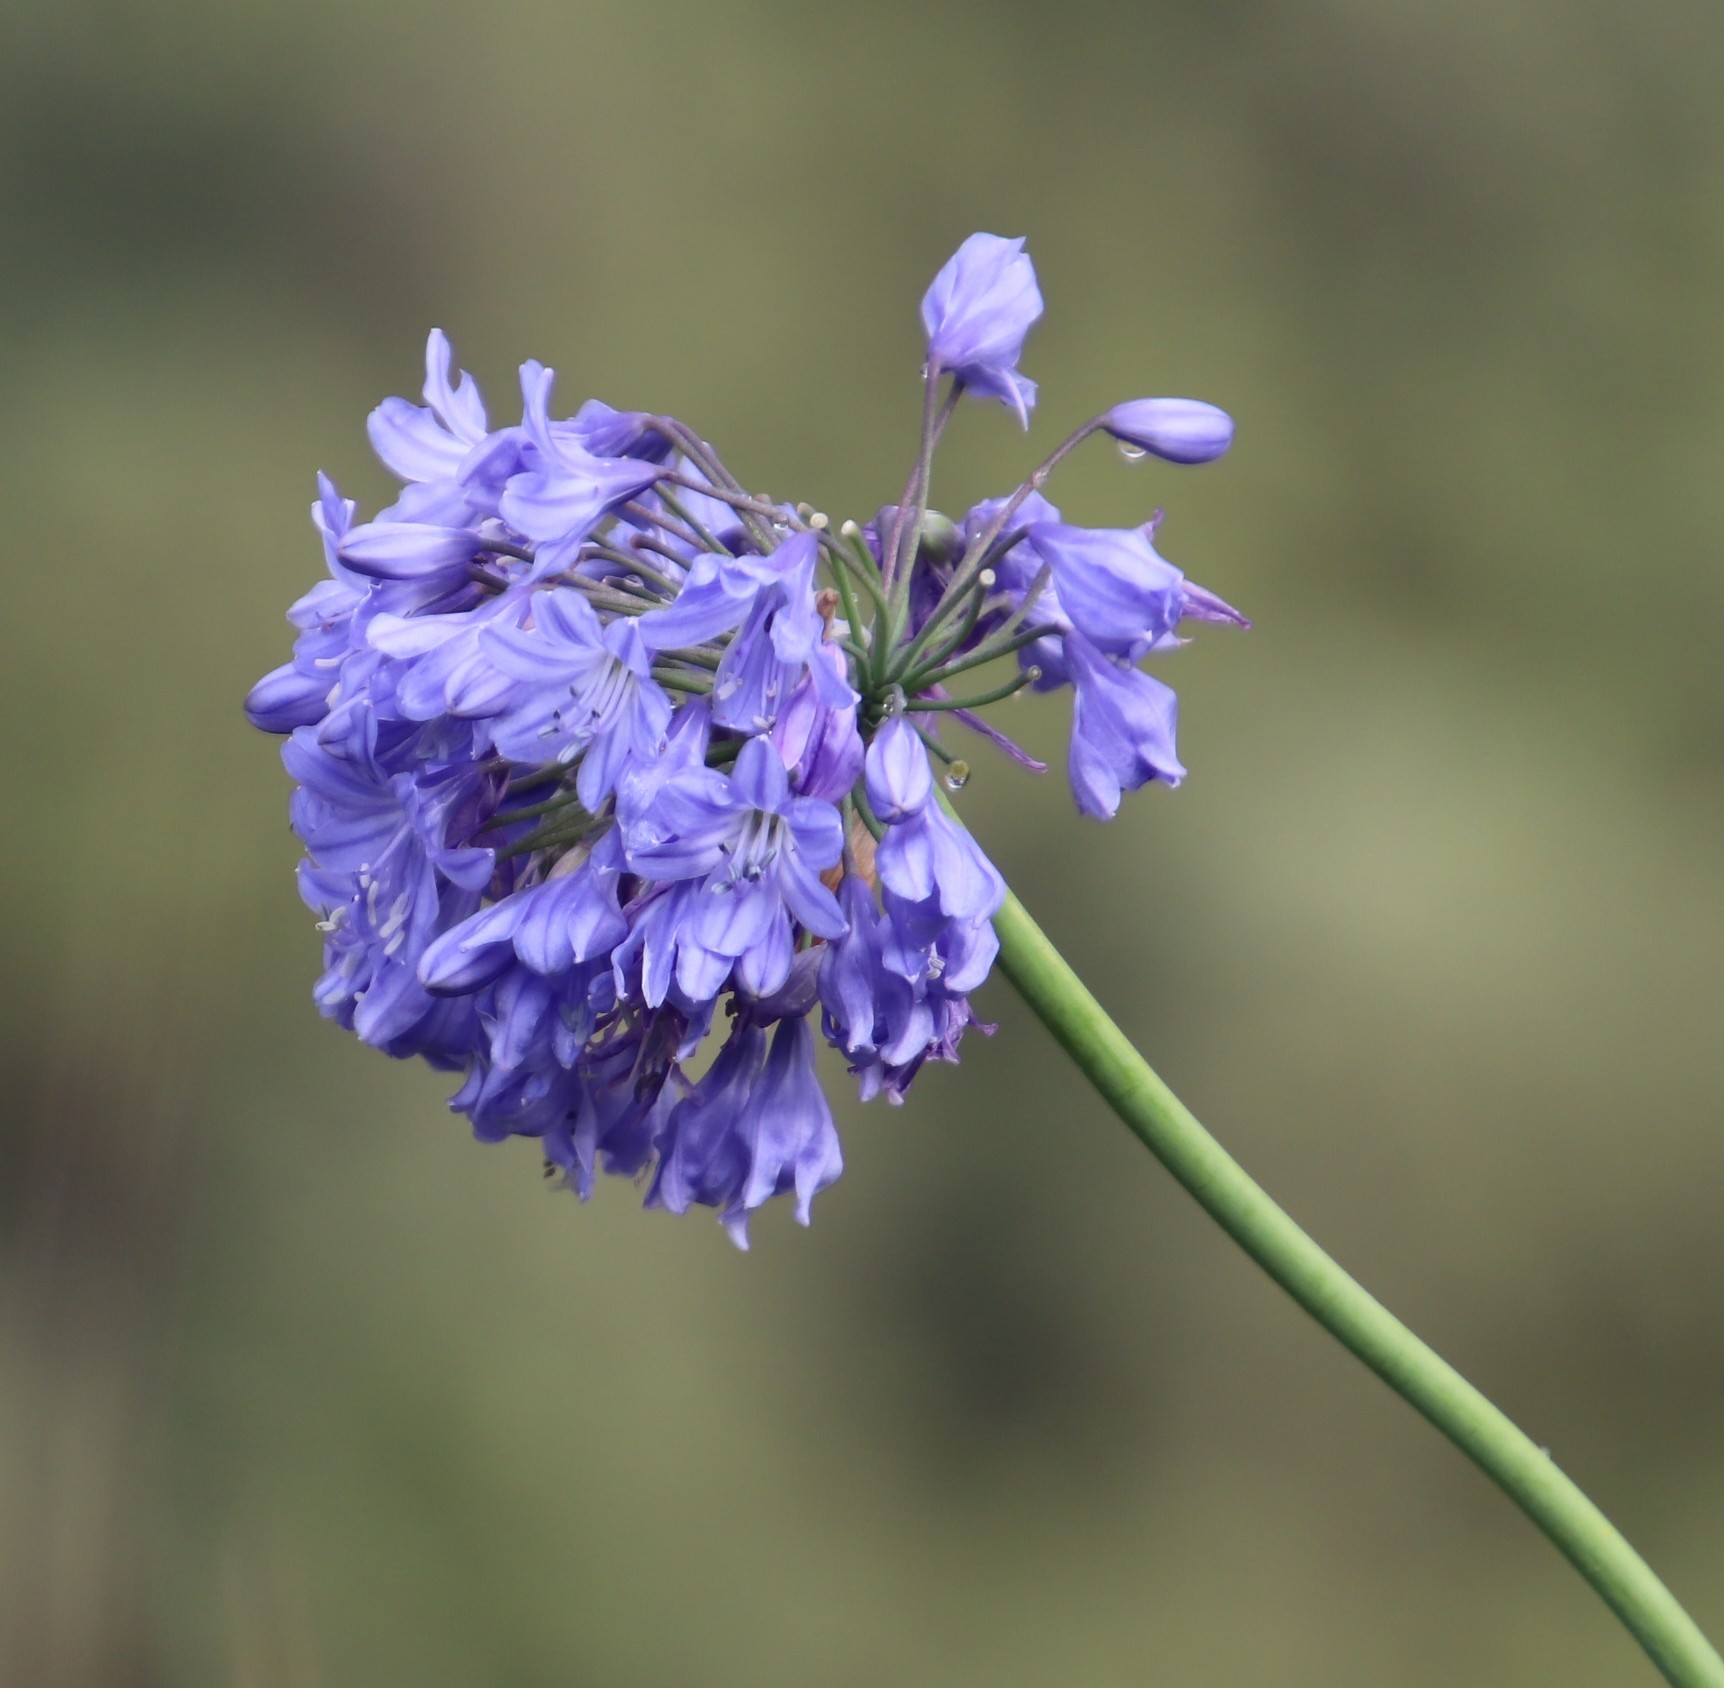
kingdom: Plantae
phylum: Tracheophyta
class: Liliopsida
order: Asparagales
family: Amaryllidaceae
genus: Agapanthus
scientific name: Agapanthus campanulatus
